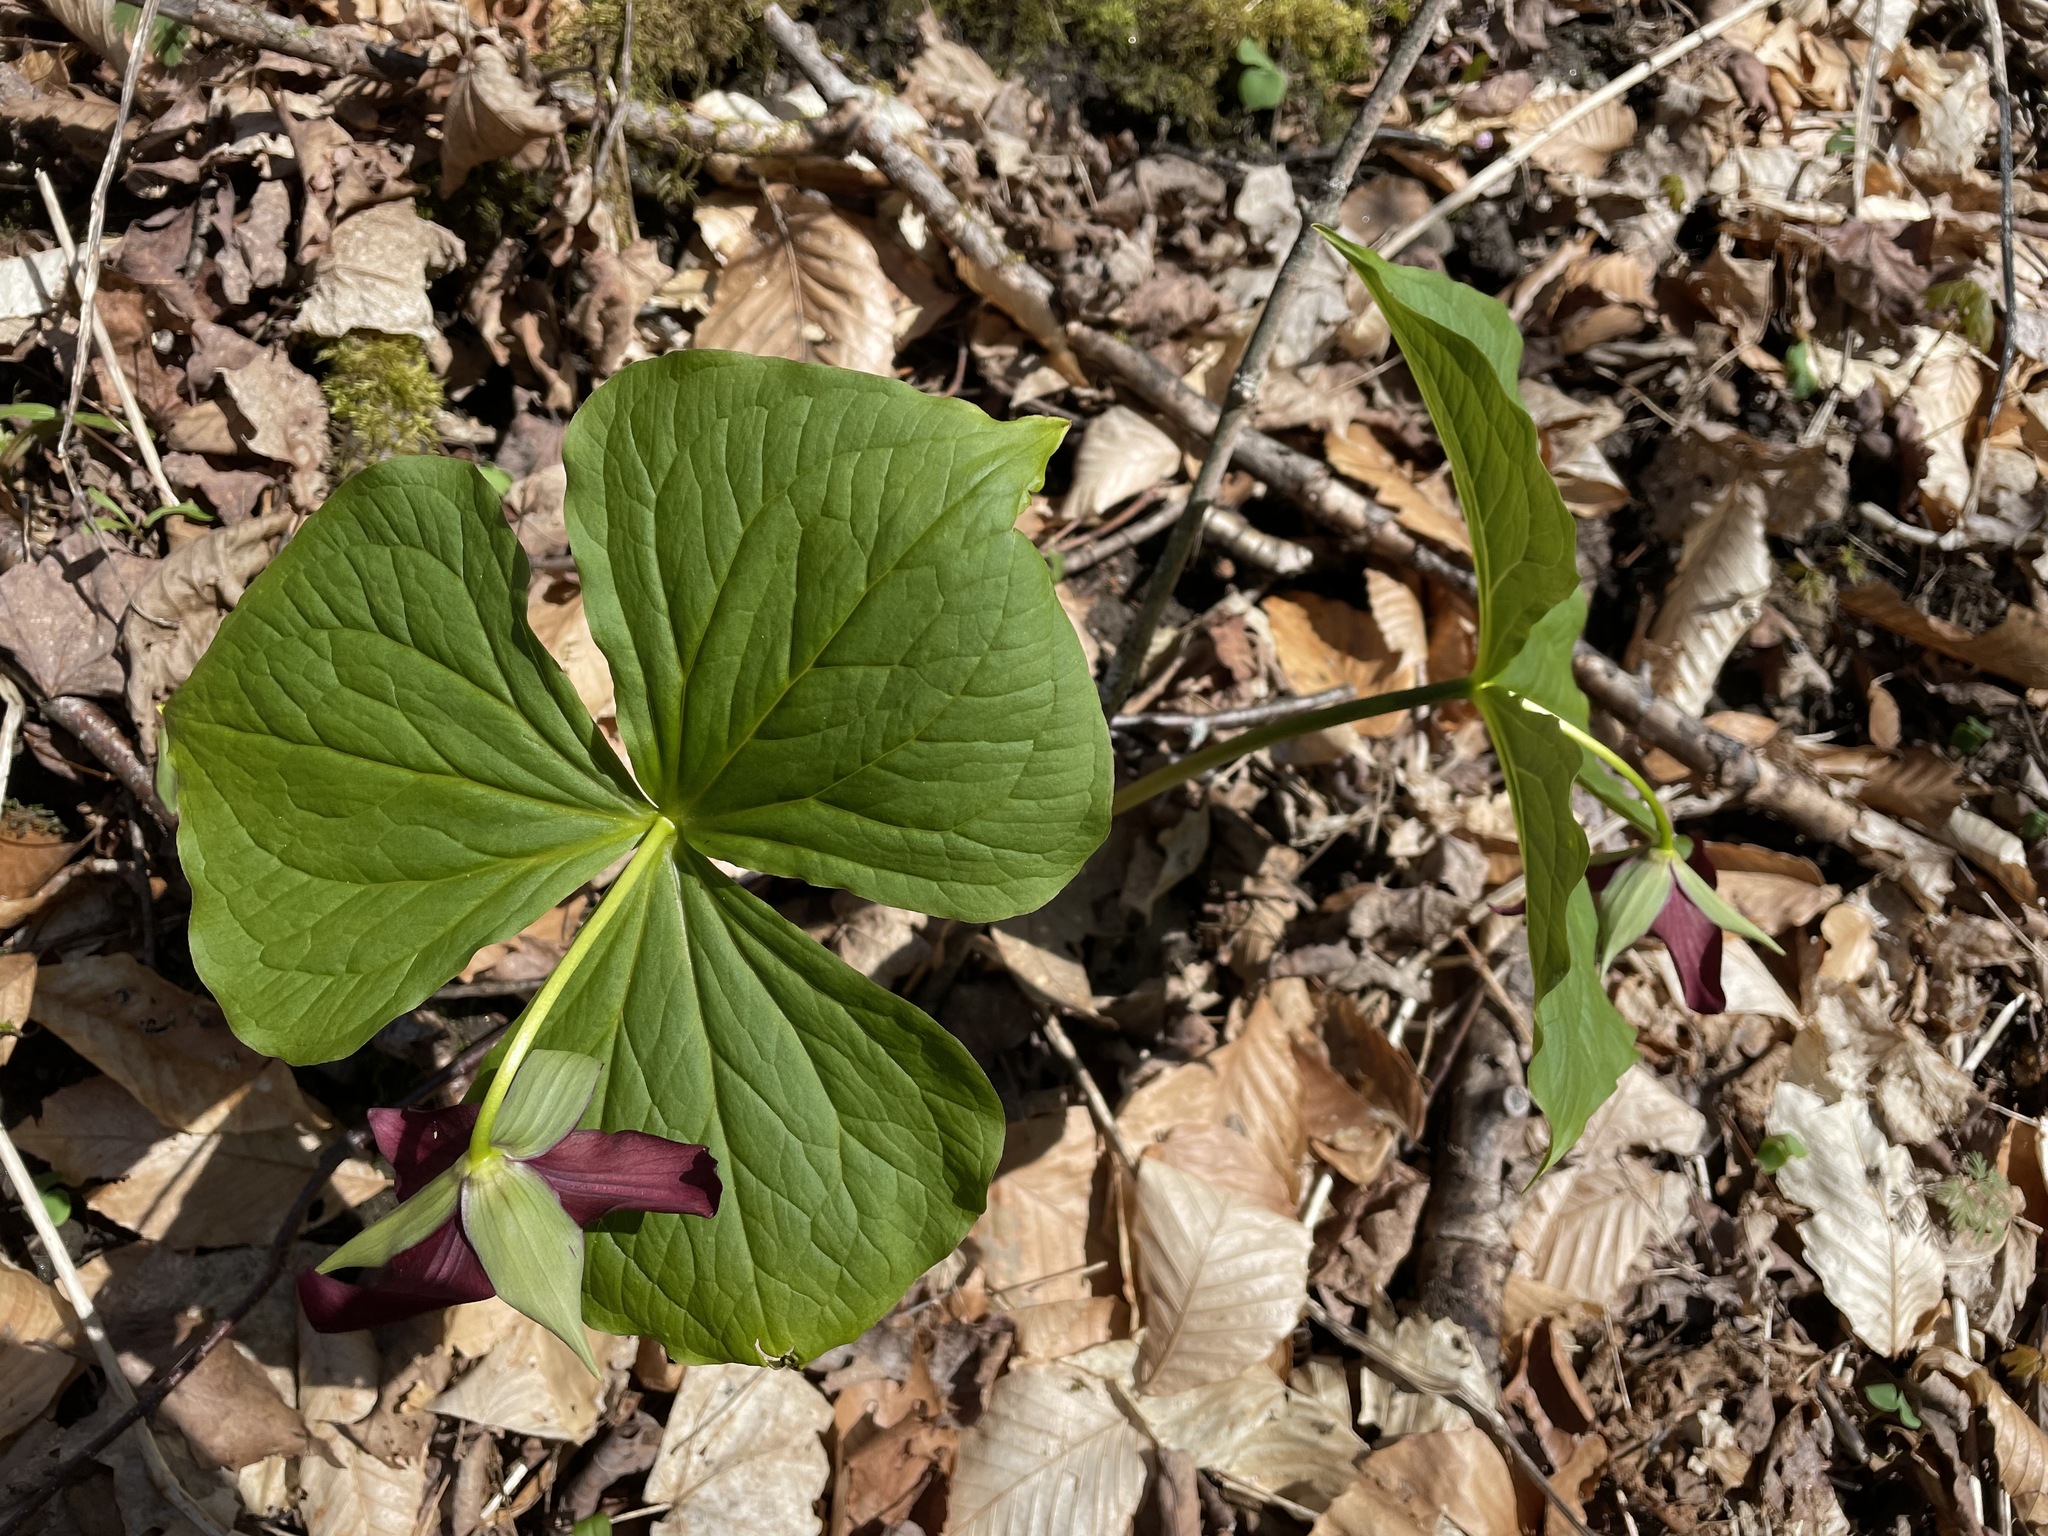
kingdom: Plantae
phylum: Tracheophyta
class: Liliopsida
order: Liliales
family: Melanthiaceae
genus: Trillium
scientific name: Trillium erectum
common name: Purple trillium
